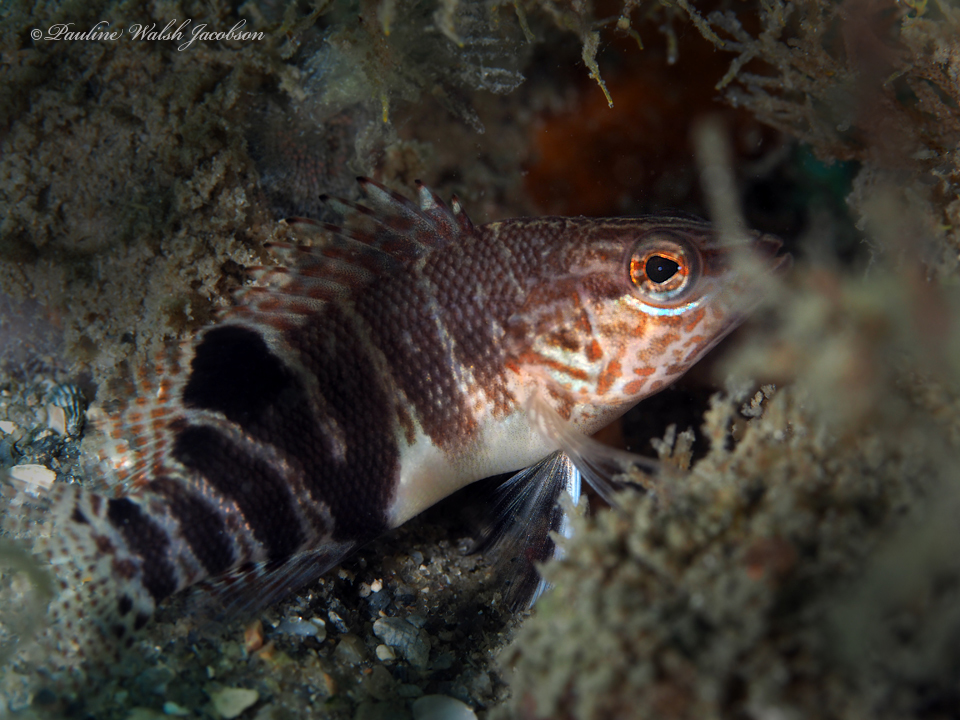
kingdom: Animalia
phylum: Chordata
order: Perciformes
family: Serranidae
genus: Serranus
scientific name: Serranus subligarius
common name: Belted sandfish
